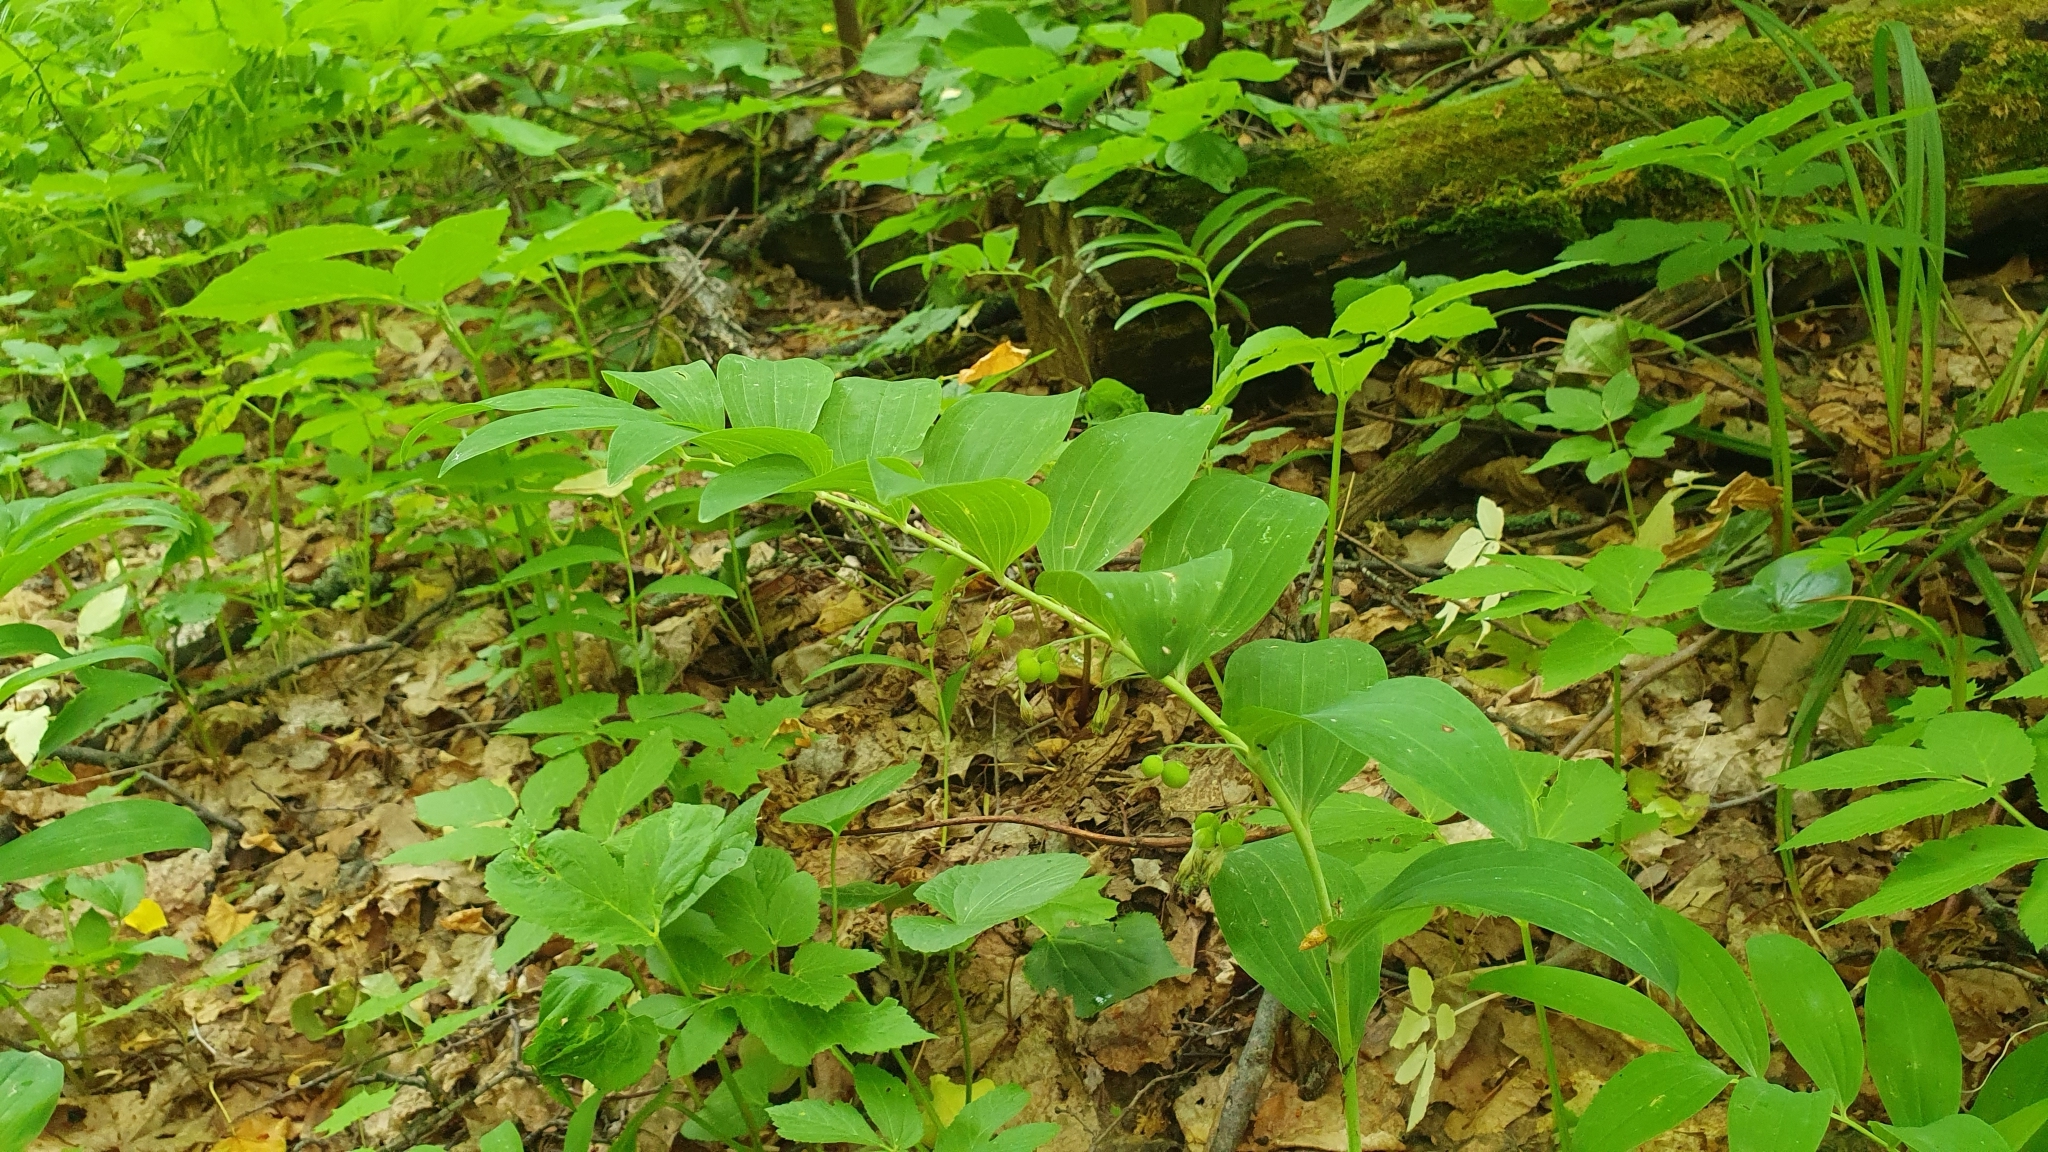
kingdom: Plantae
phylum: Tracheophyta
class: Liliopsida
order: Asparagales
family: Asparagaceae
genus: Polygonatum
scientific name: Polygonatum multiflorum
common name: Solomon's-seal
